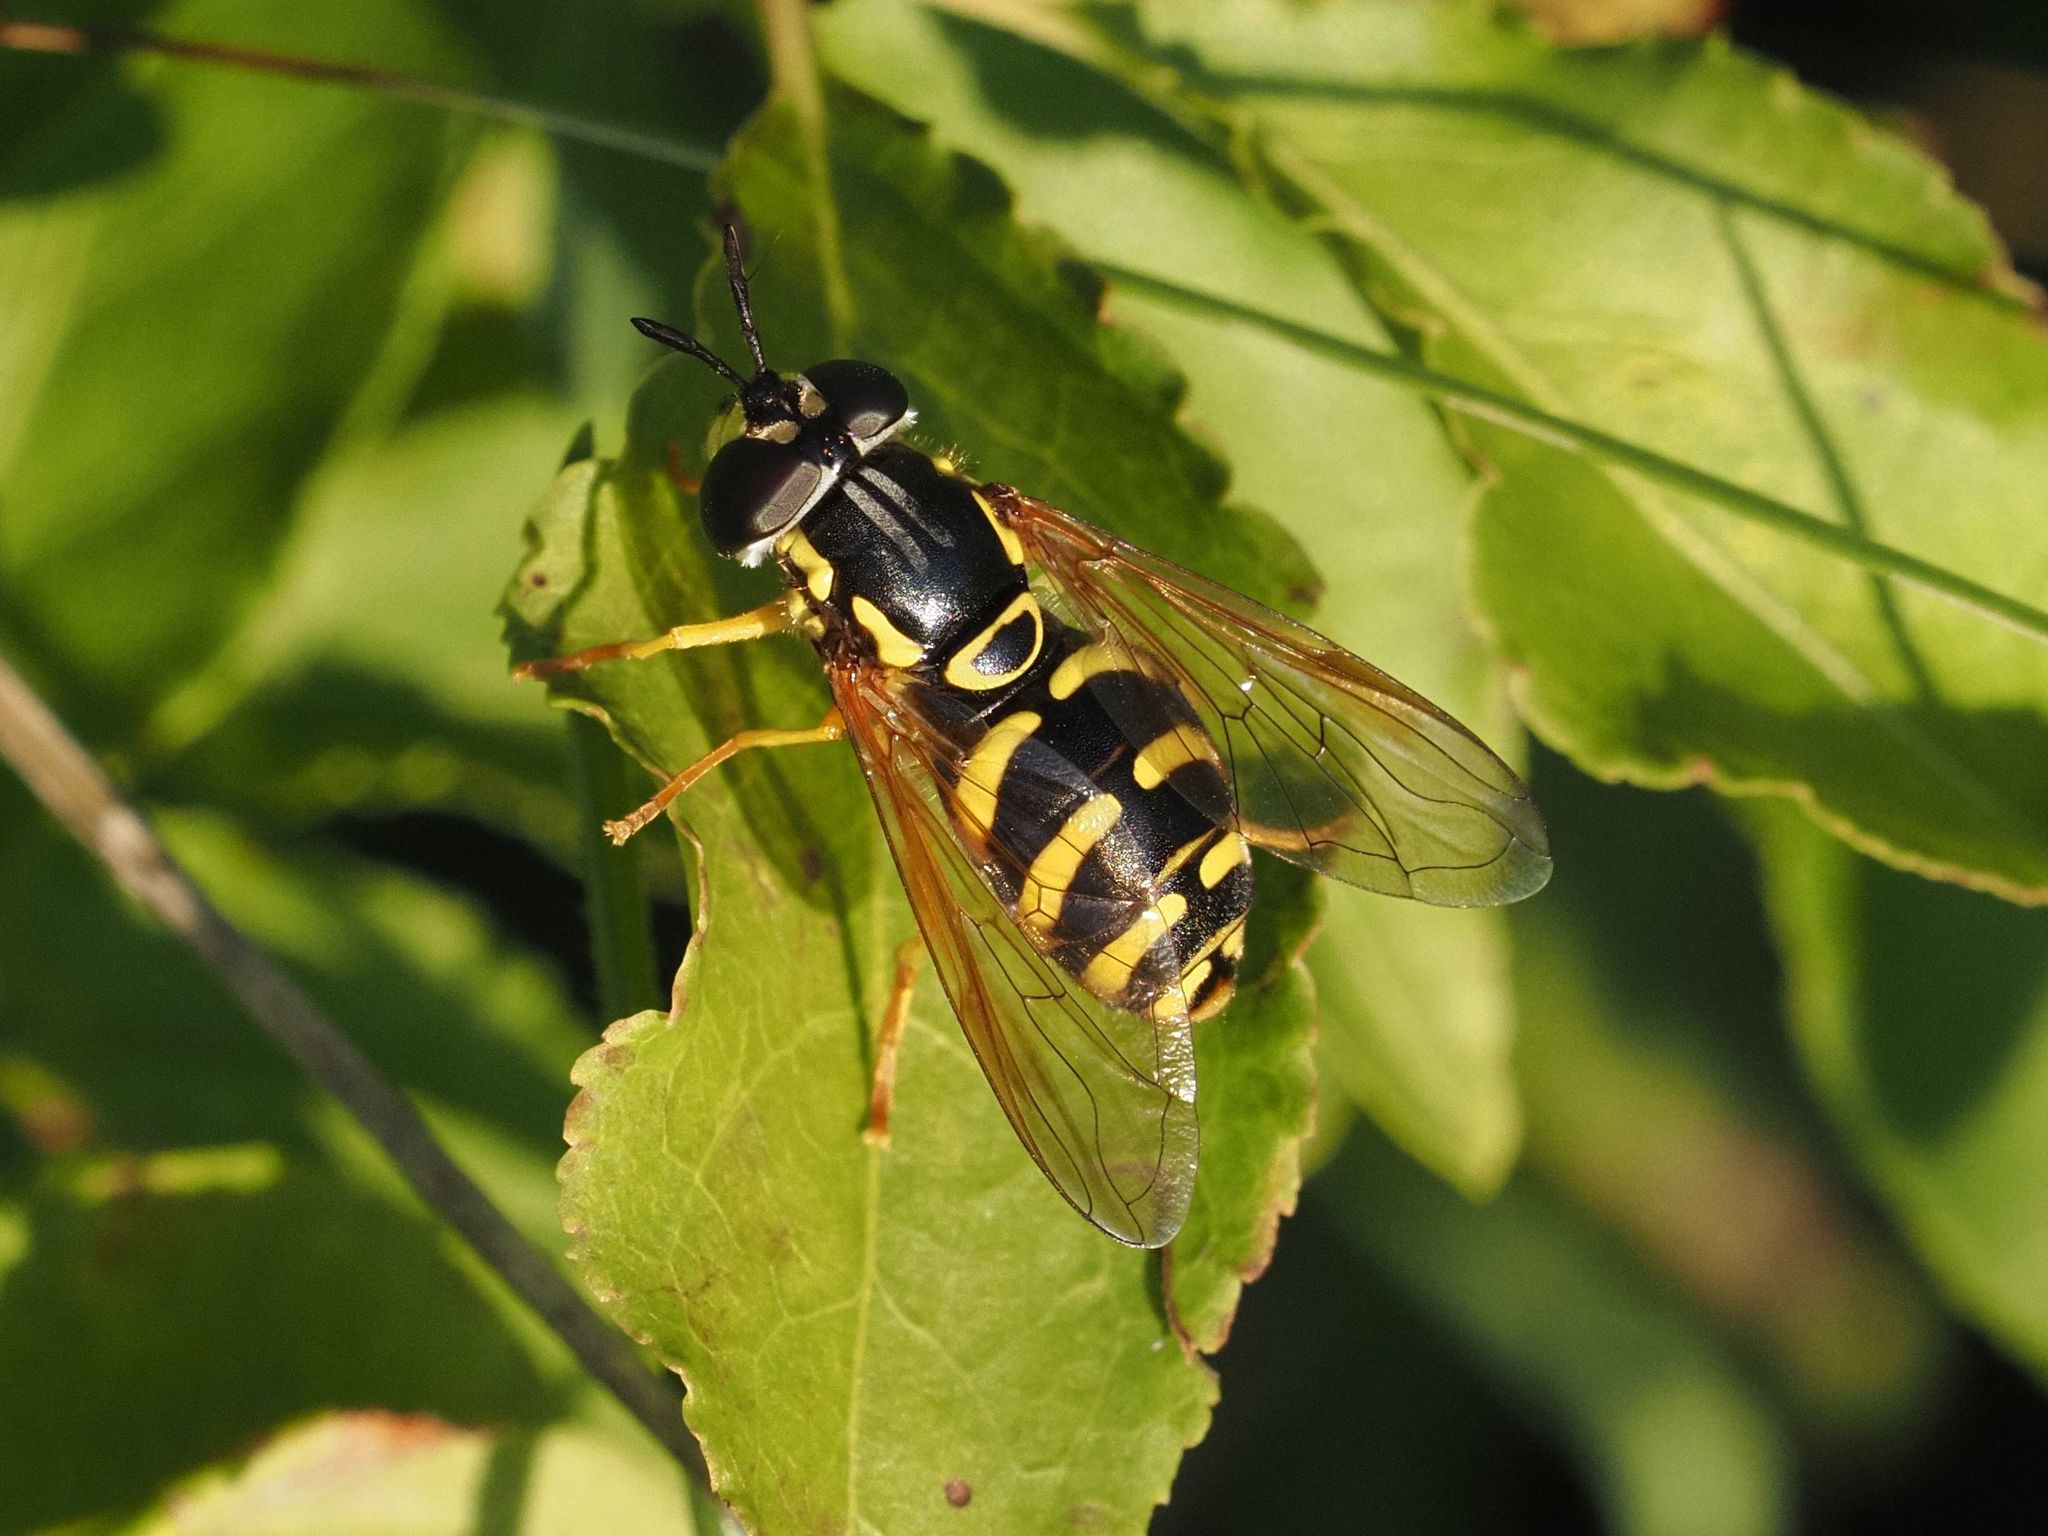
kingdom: Animalia
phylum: Arthropoda
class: Insecta
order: Diptera
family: Syrphidae
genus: Chrysotoxum
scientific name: Chrysotoxum elegans
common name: Zipperback
